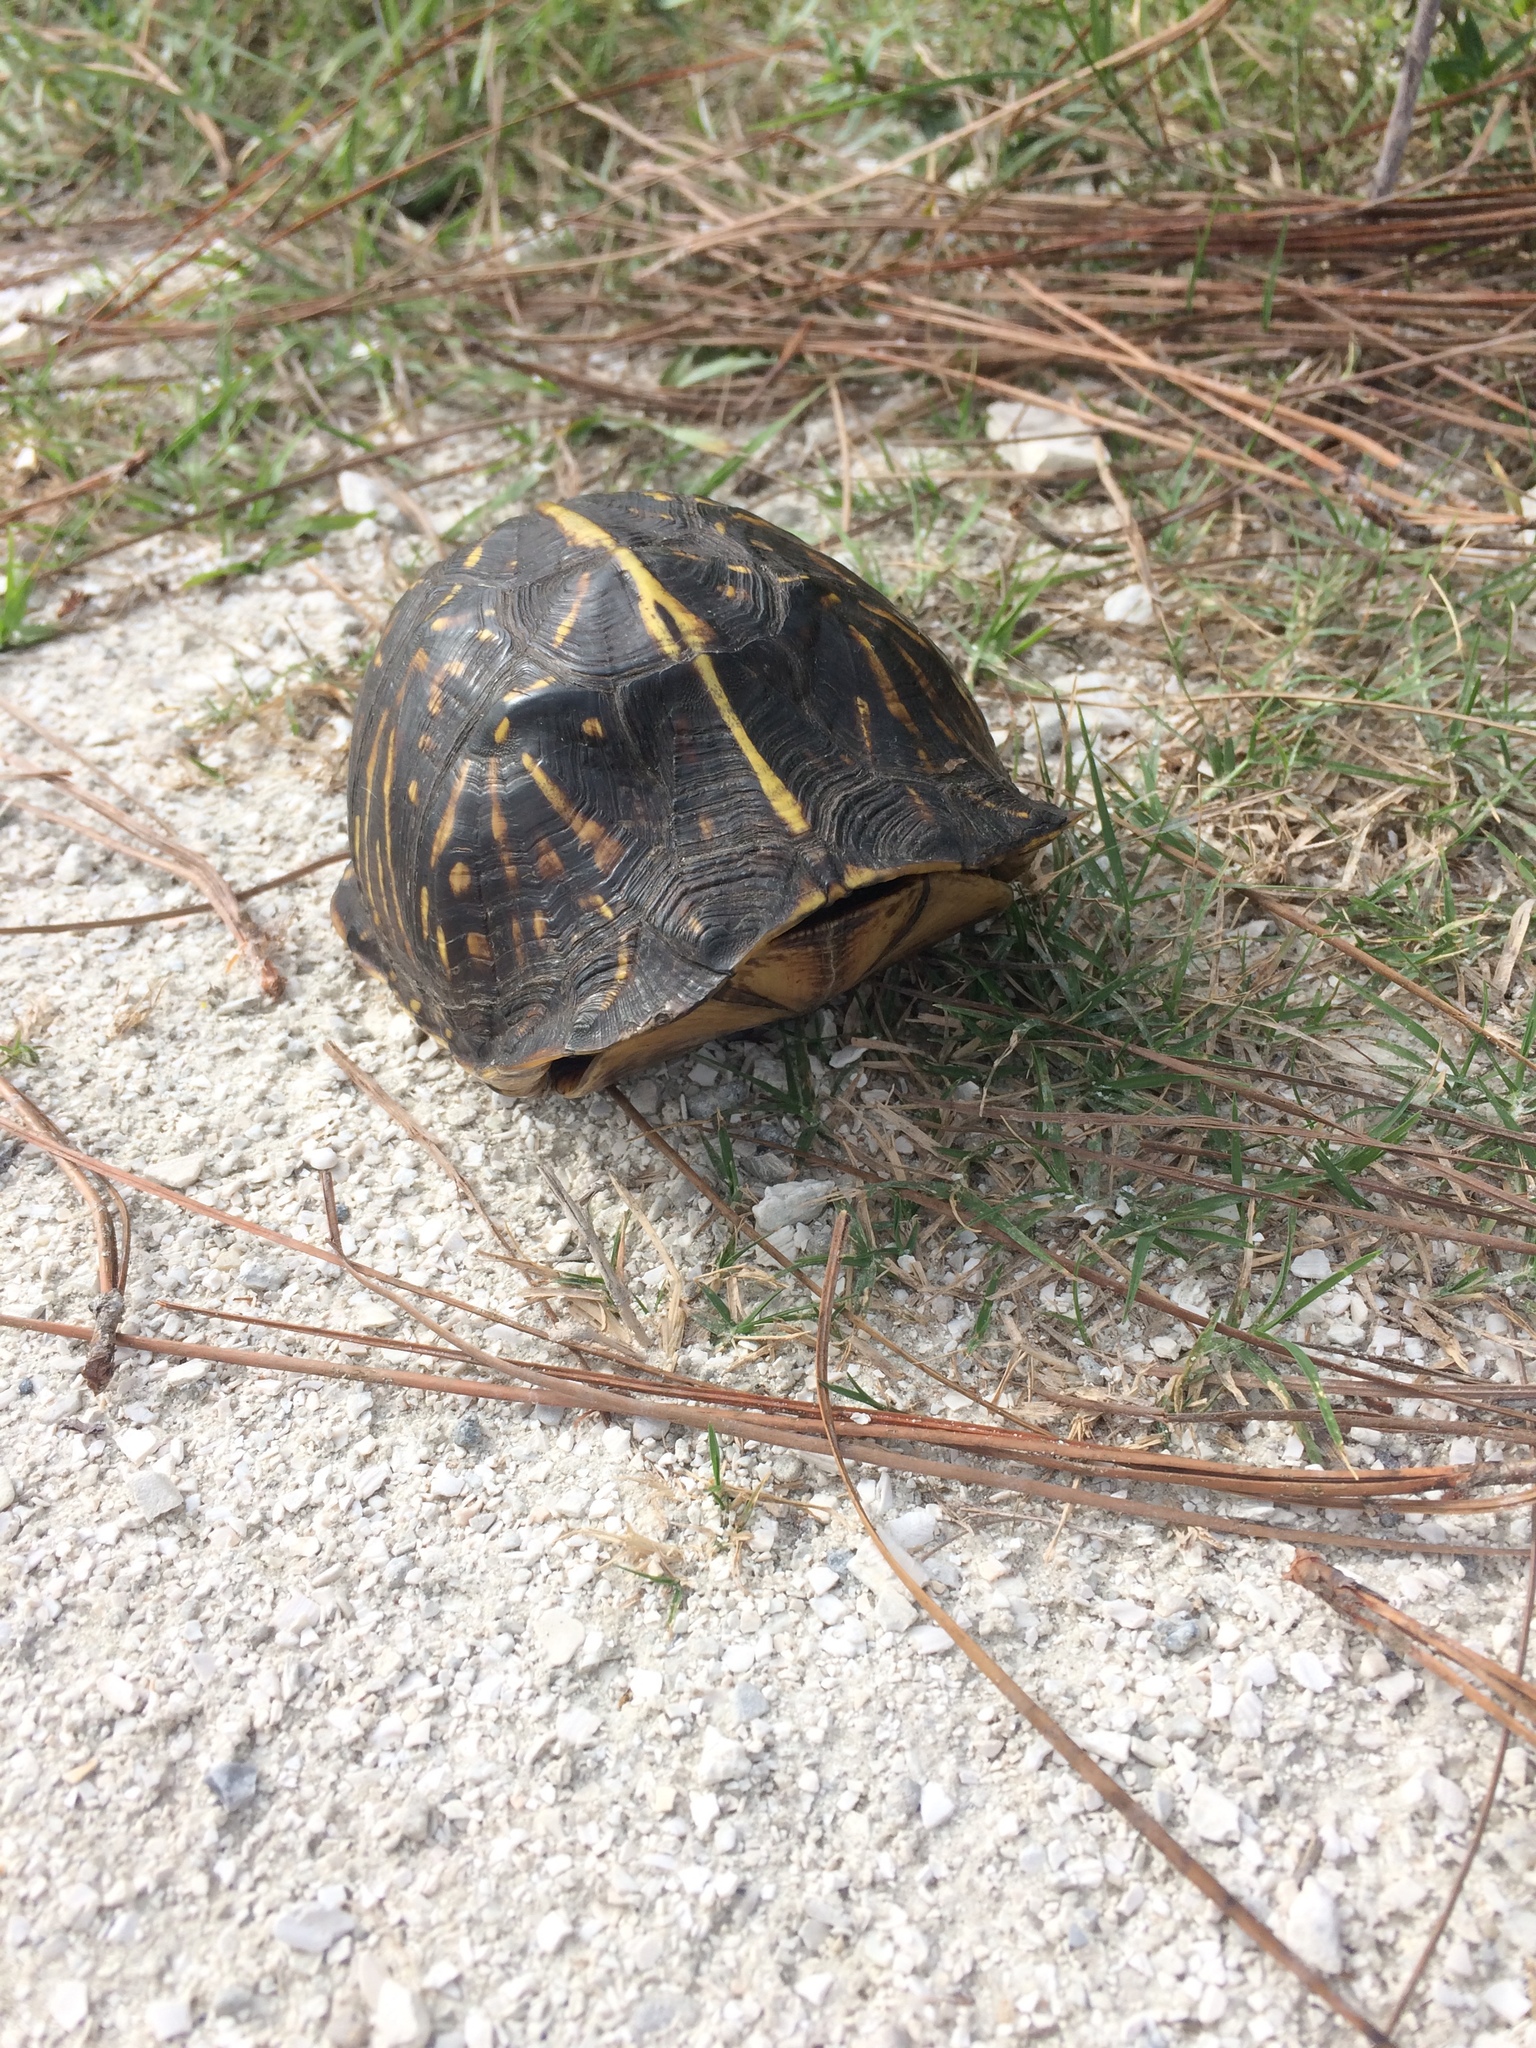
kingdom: Animalia
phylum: Chordata
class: Testudines
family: Emydidae
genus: Terrapene
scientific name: Terrapene carolina
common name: Common box turtle
